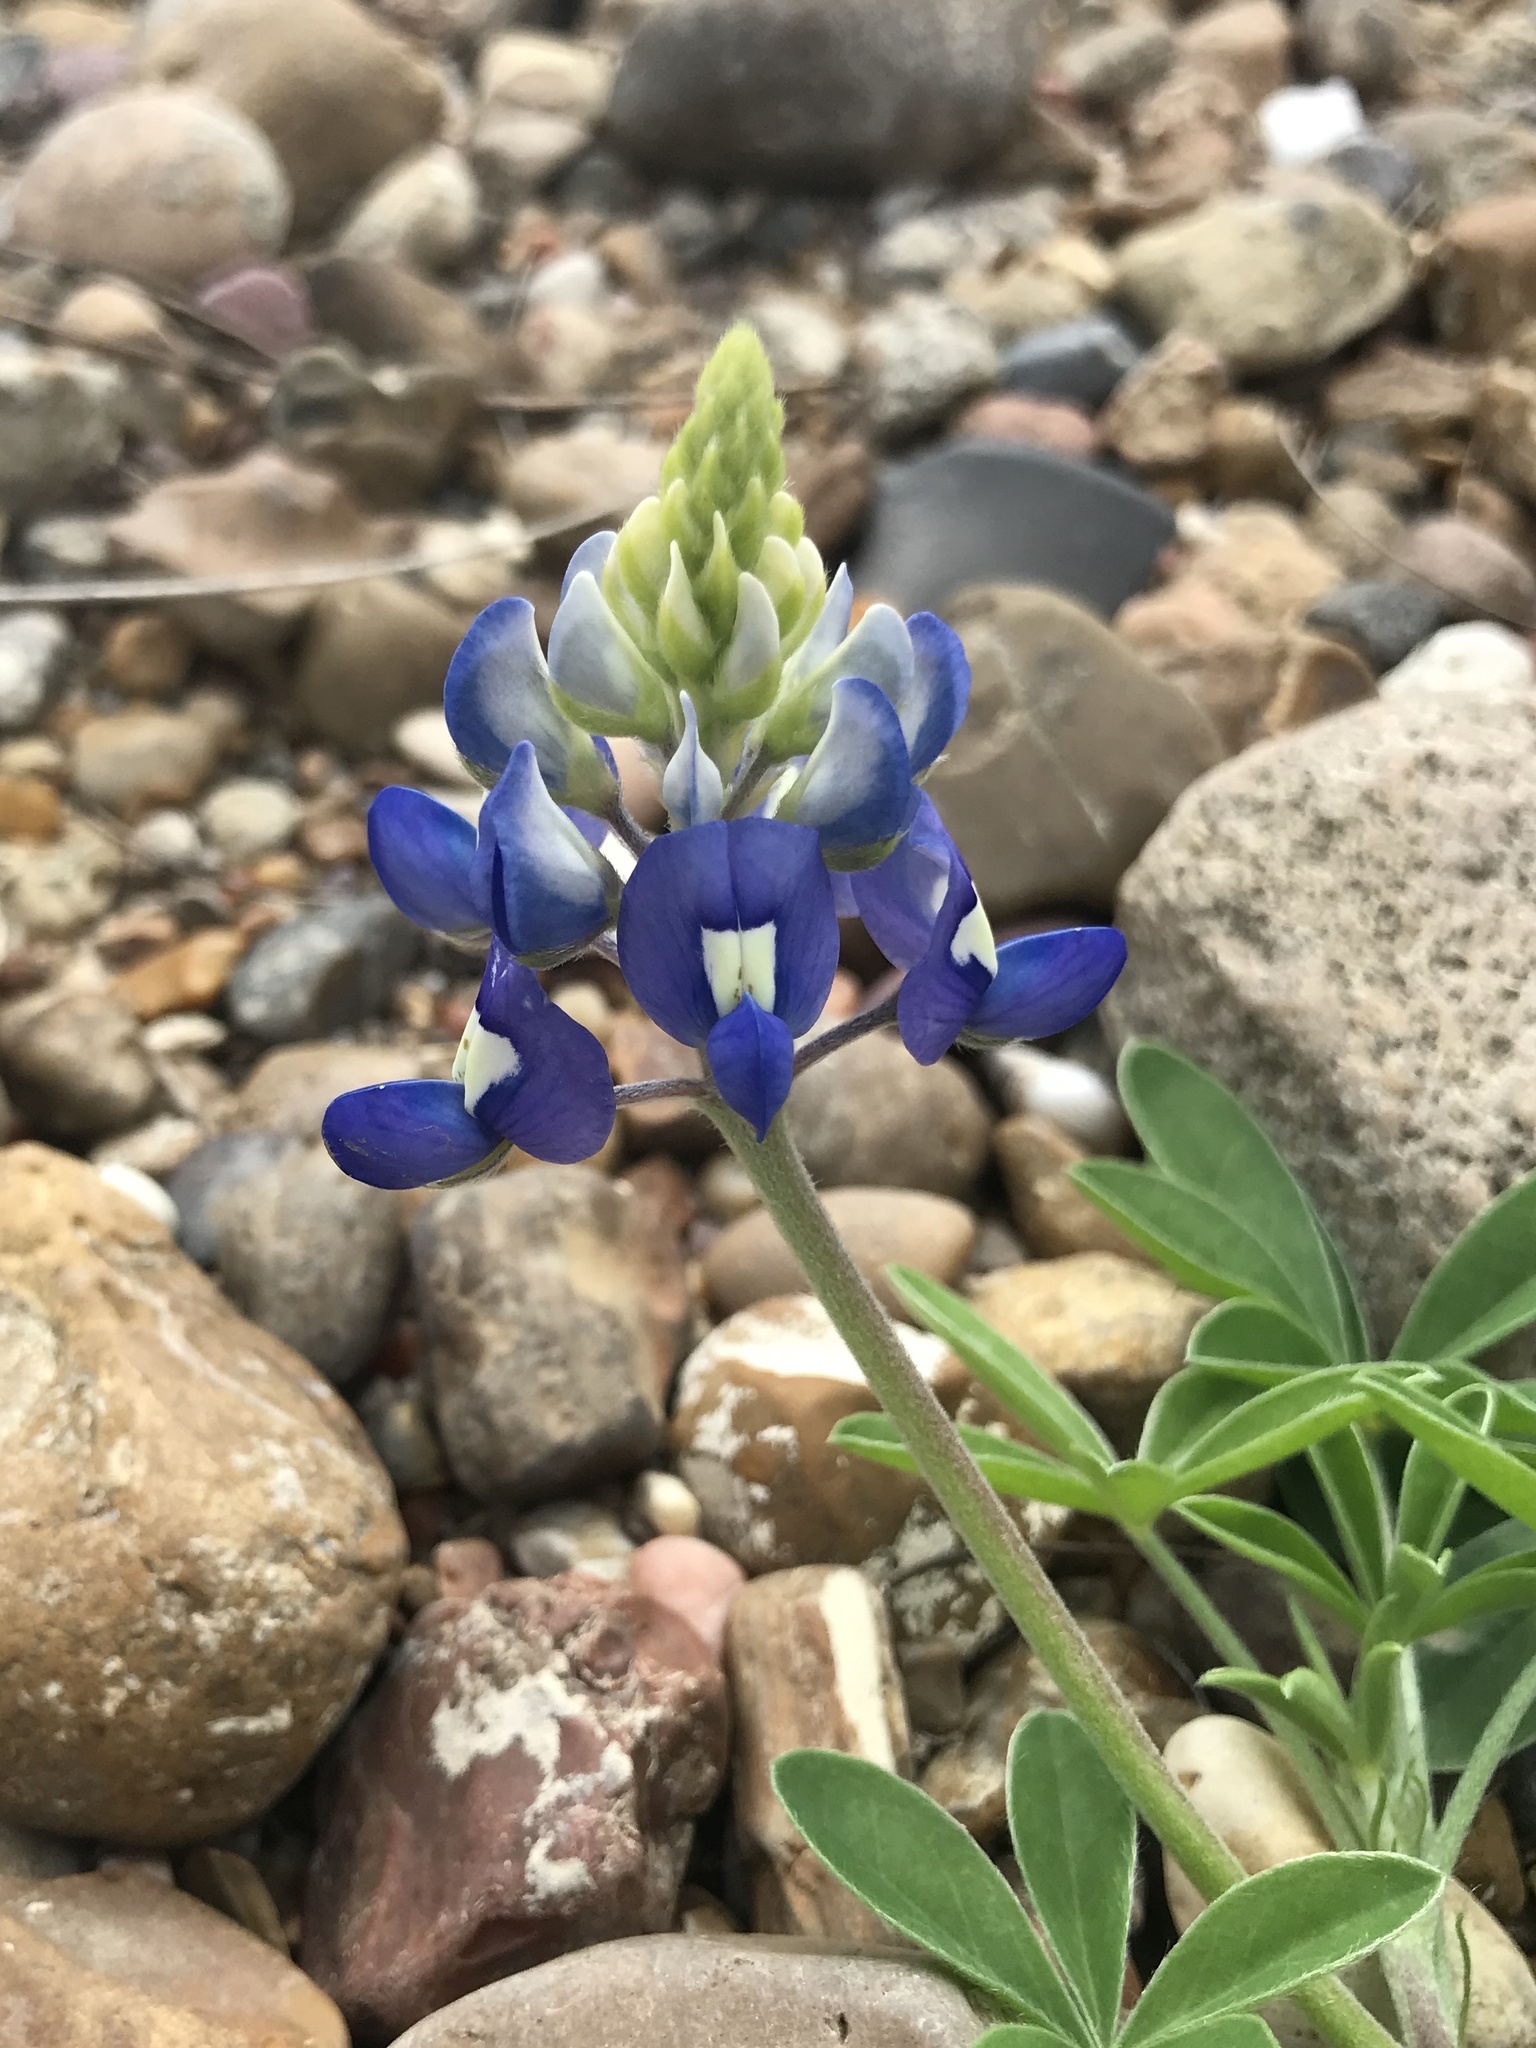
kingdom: Plantae
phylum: Tracheophyta
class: Magnoliopsida
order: Fabales
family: Fabaceae
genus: Lupinus
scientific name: Lupinus texensis
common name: Texas bluebonnet
